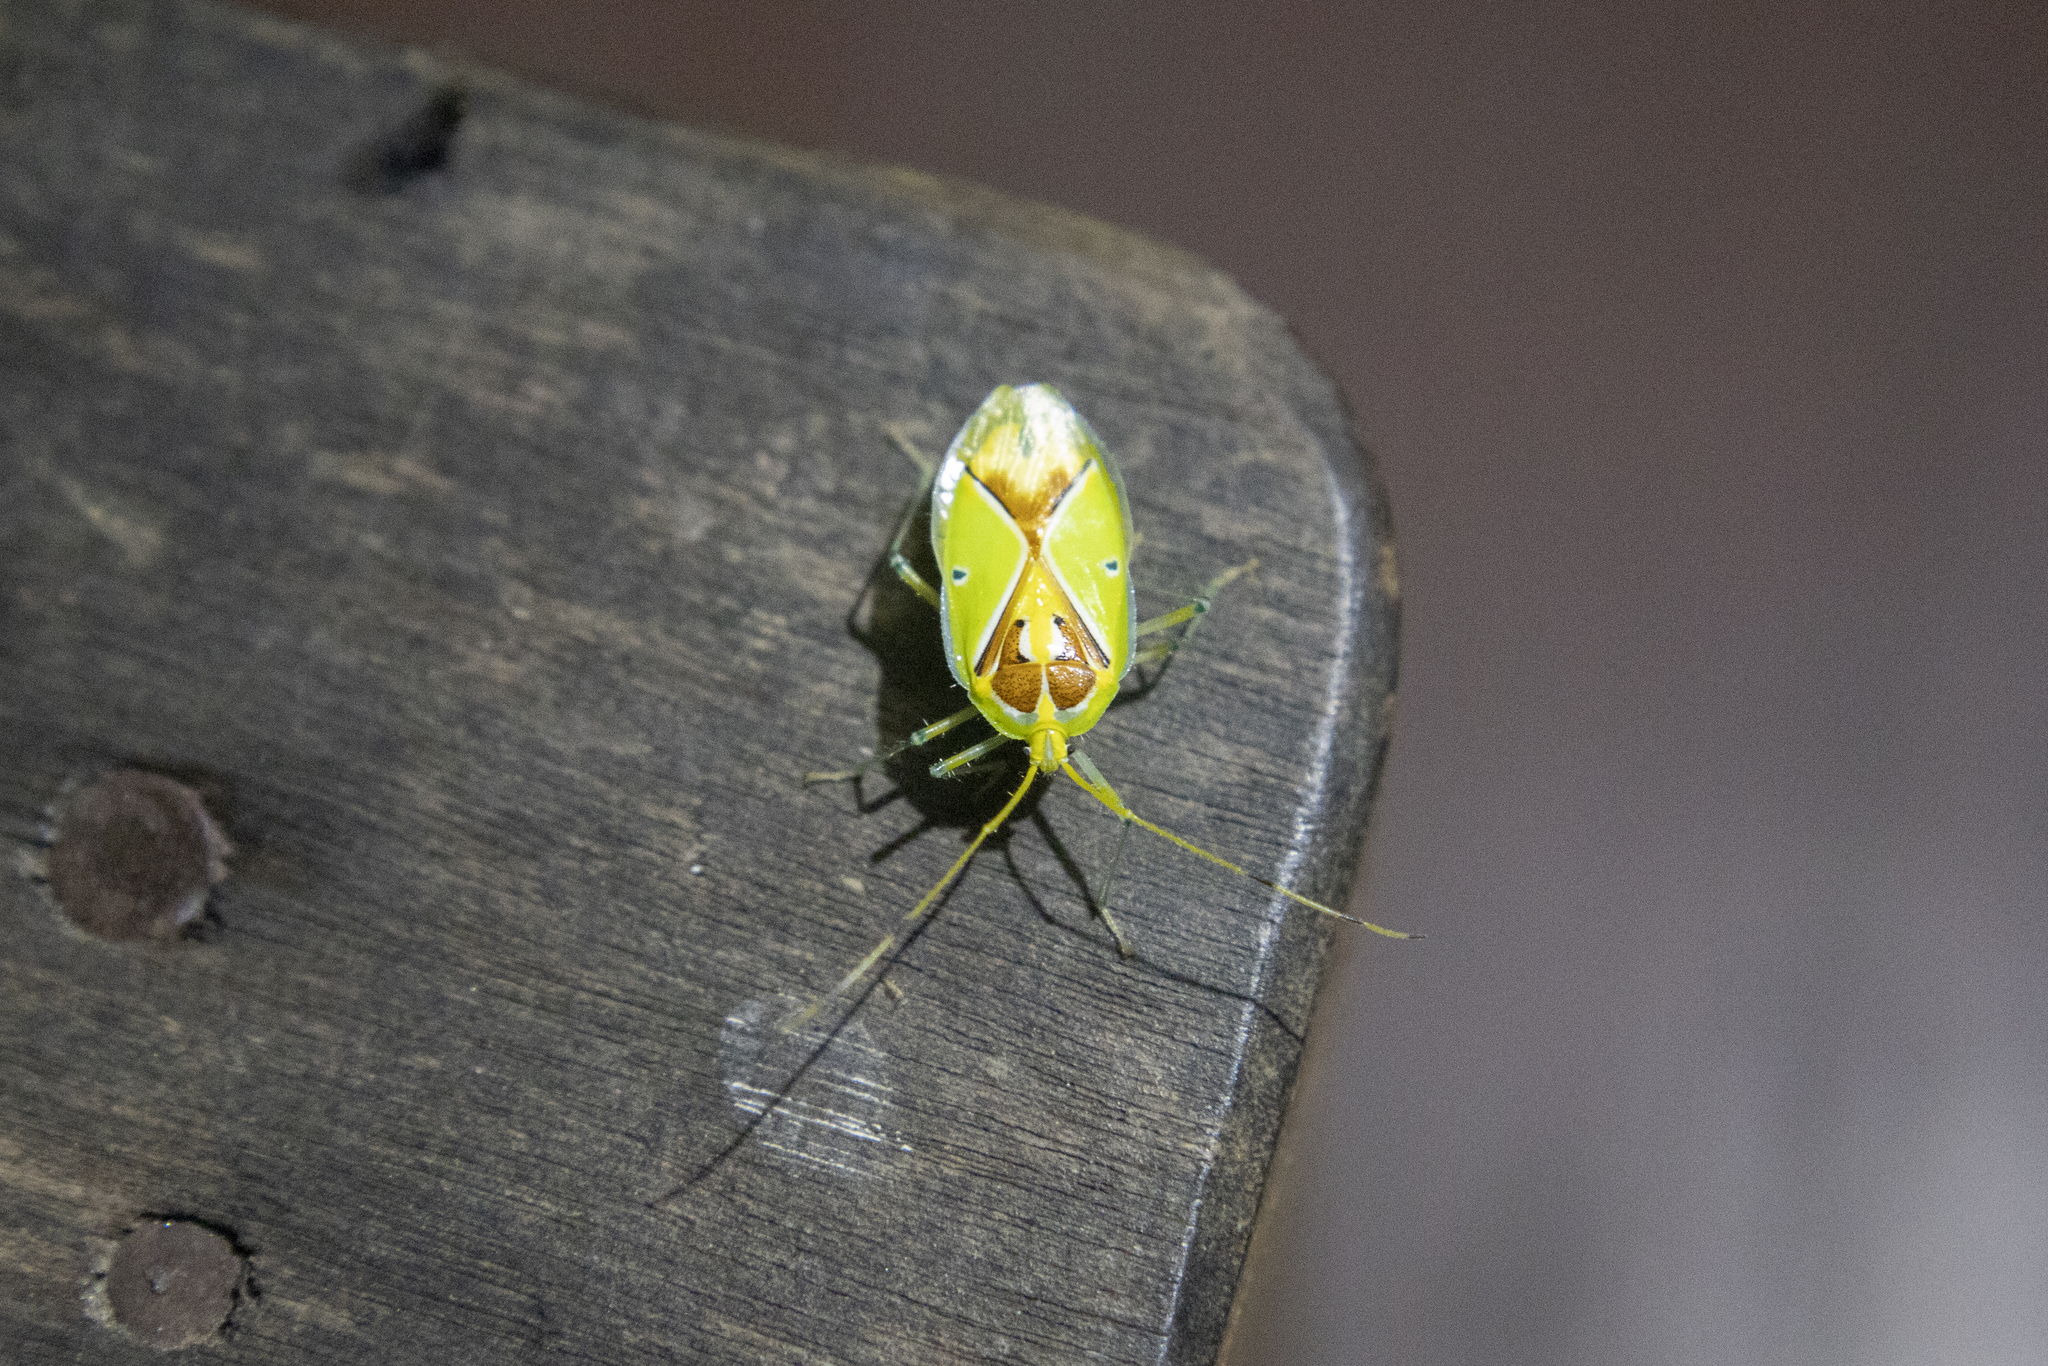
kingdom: Animalia
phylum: Arthropoda
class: Insecta
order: Hemiptera
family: Urostylididae
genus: Urolabida
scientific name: Urolabida
